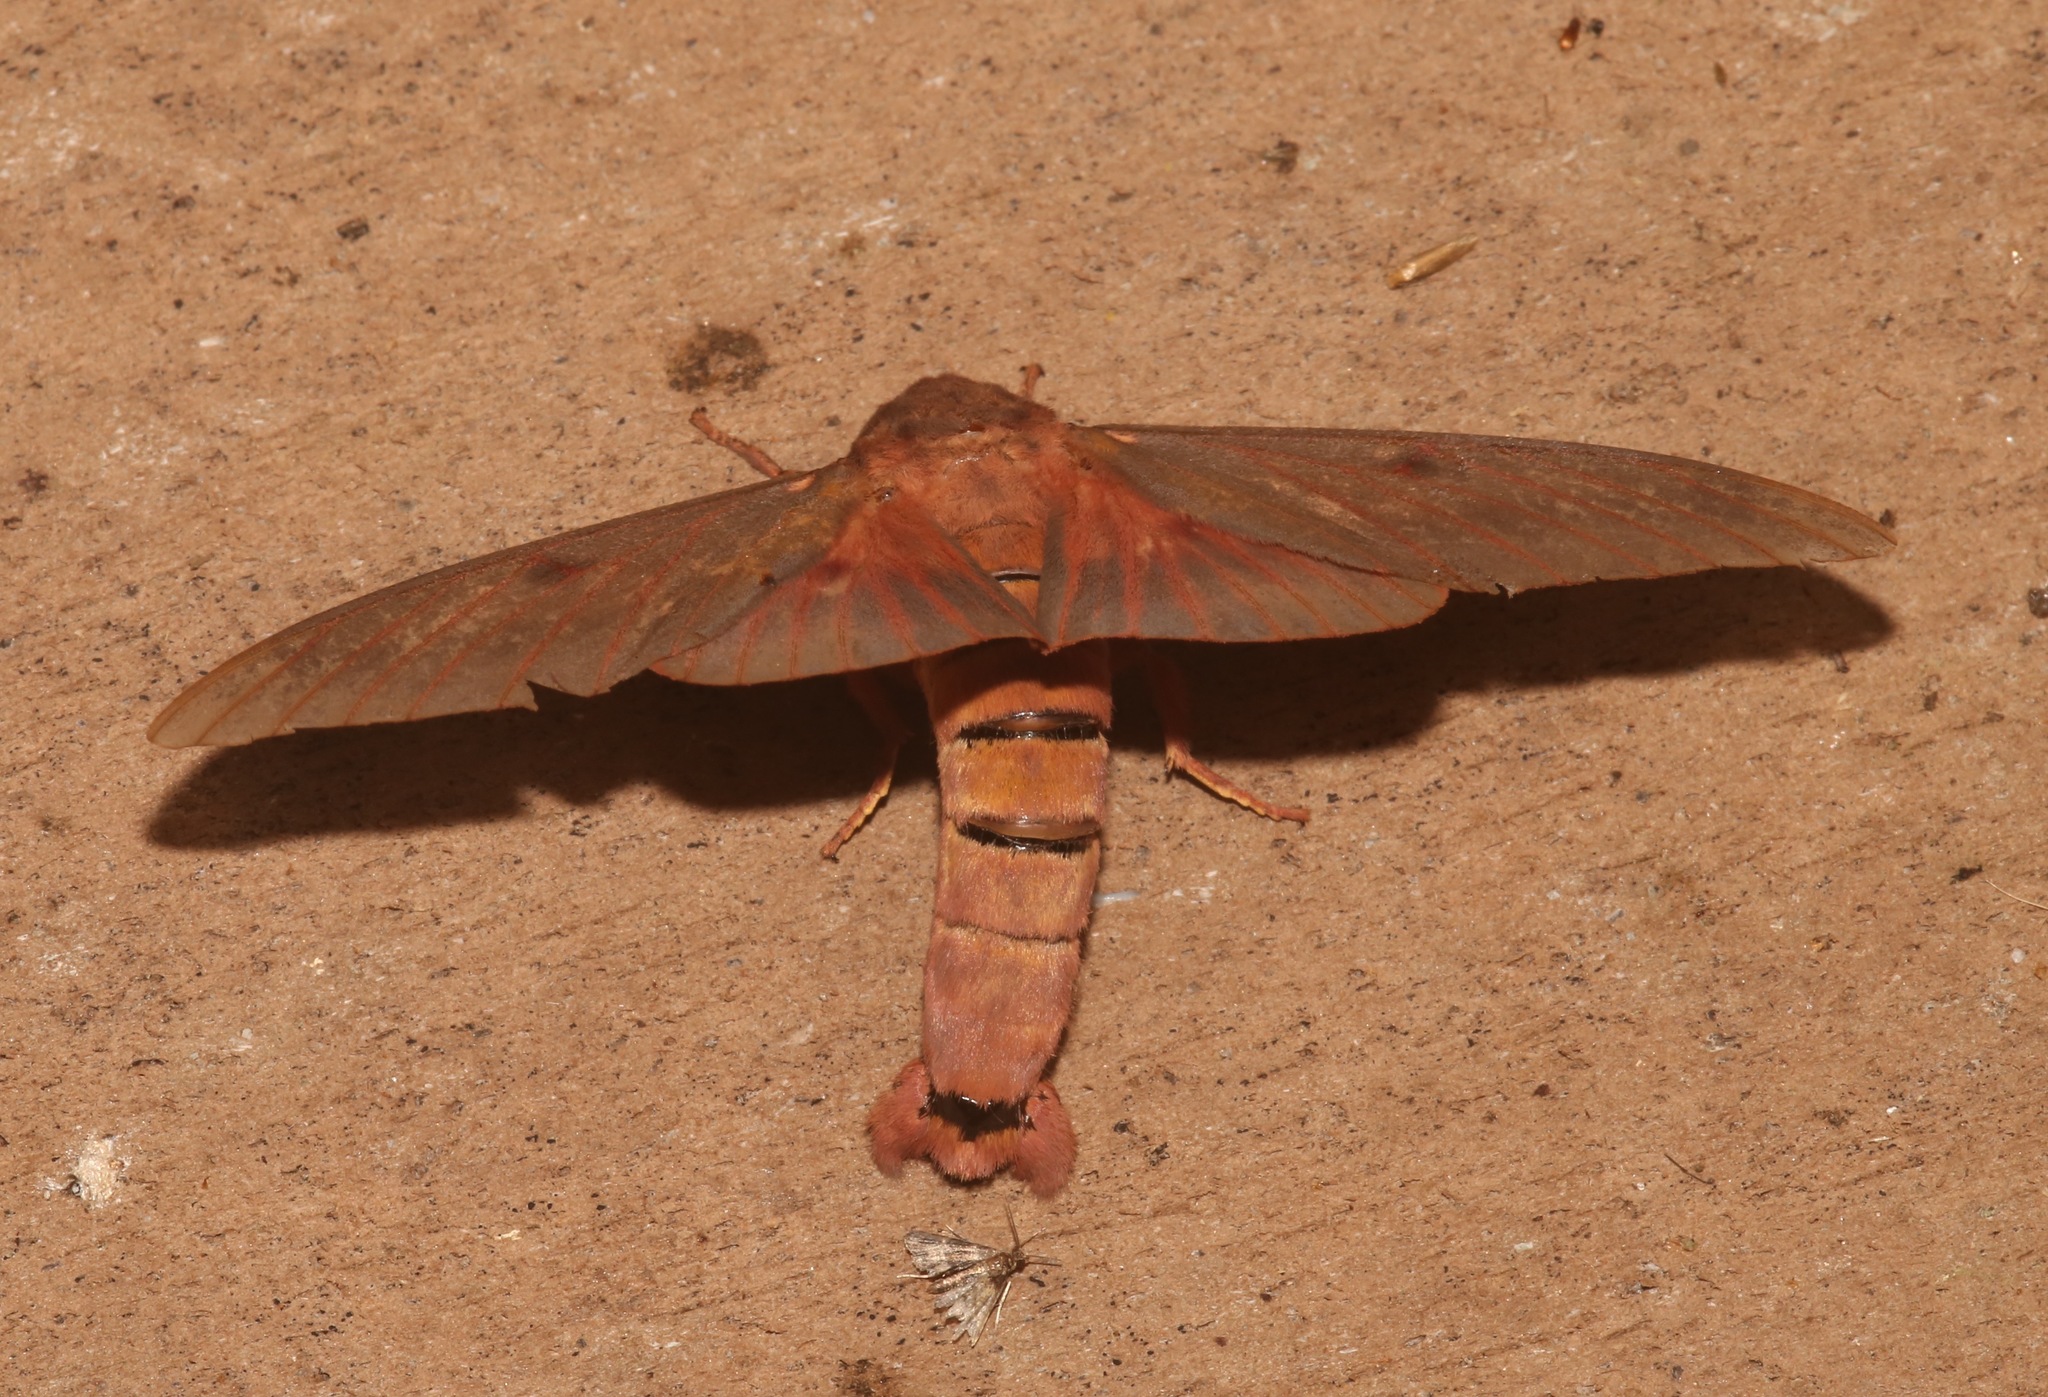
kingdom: Animalia
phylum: Arthropoda
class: Insecta
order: Lepidoptera
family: Saturniidae
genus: Citheronia
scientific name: Citheronia sepulcralis
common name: Pine-devil moth
